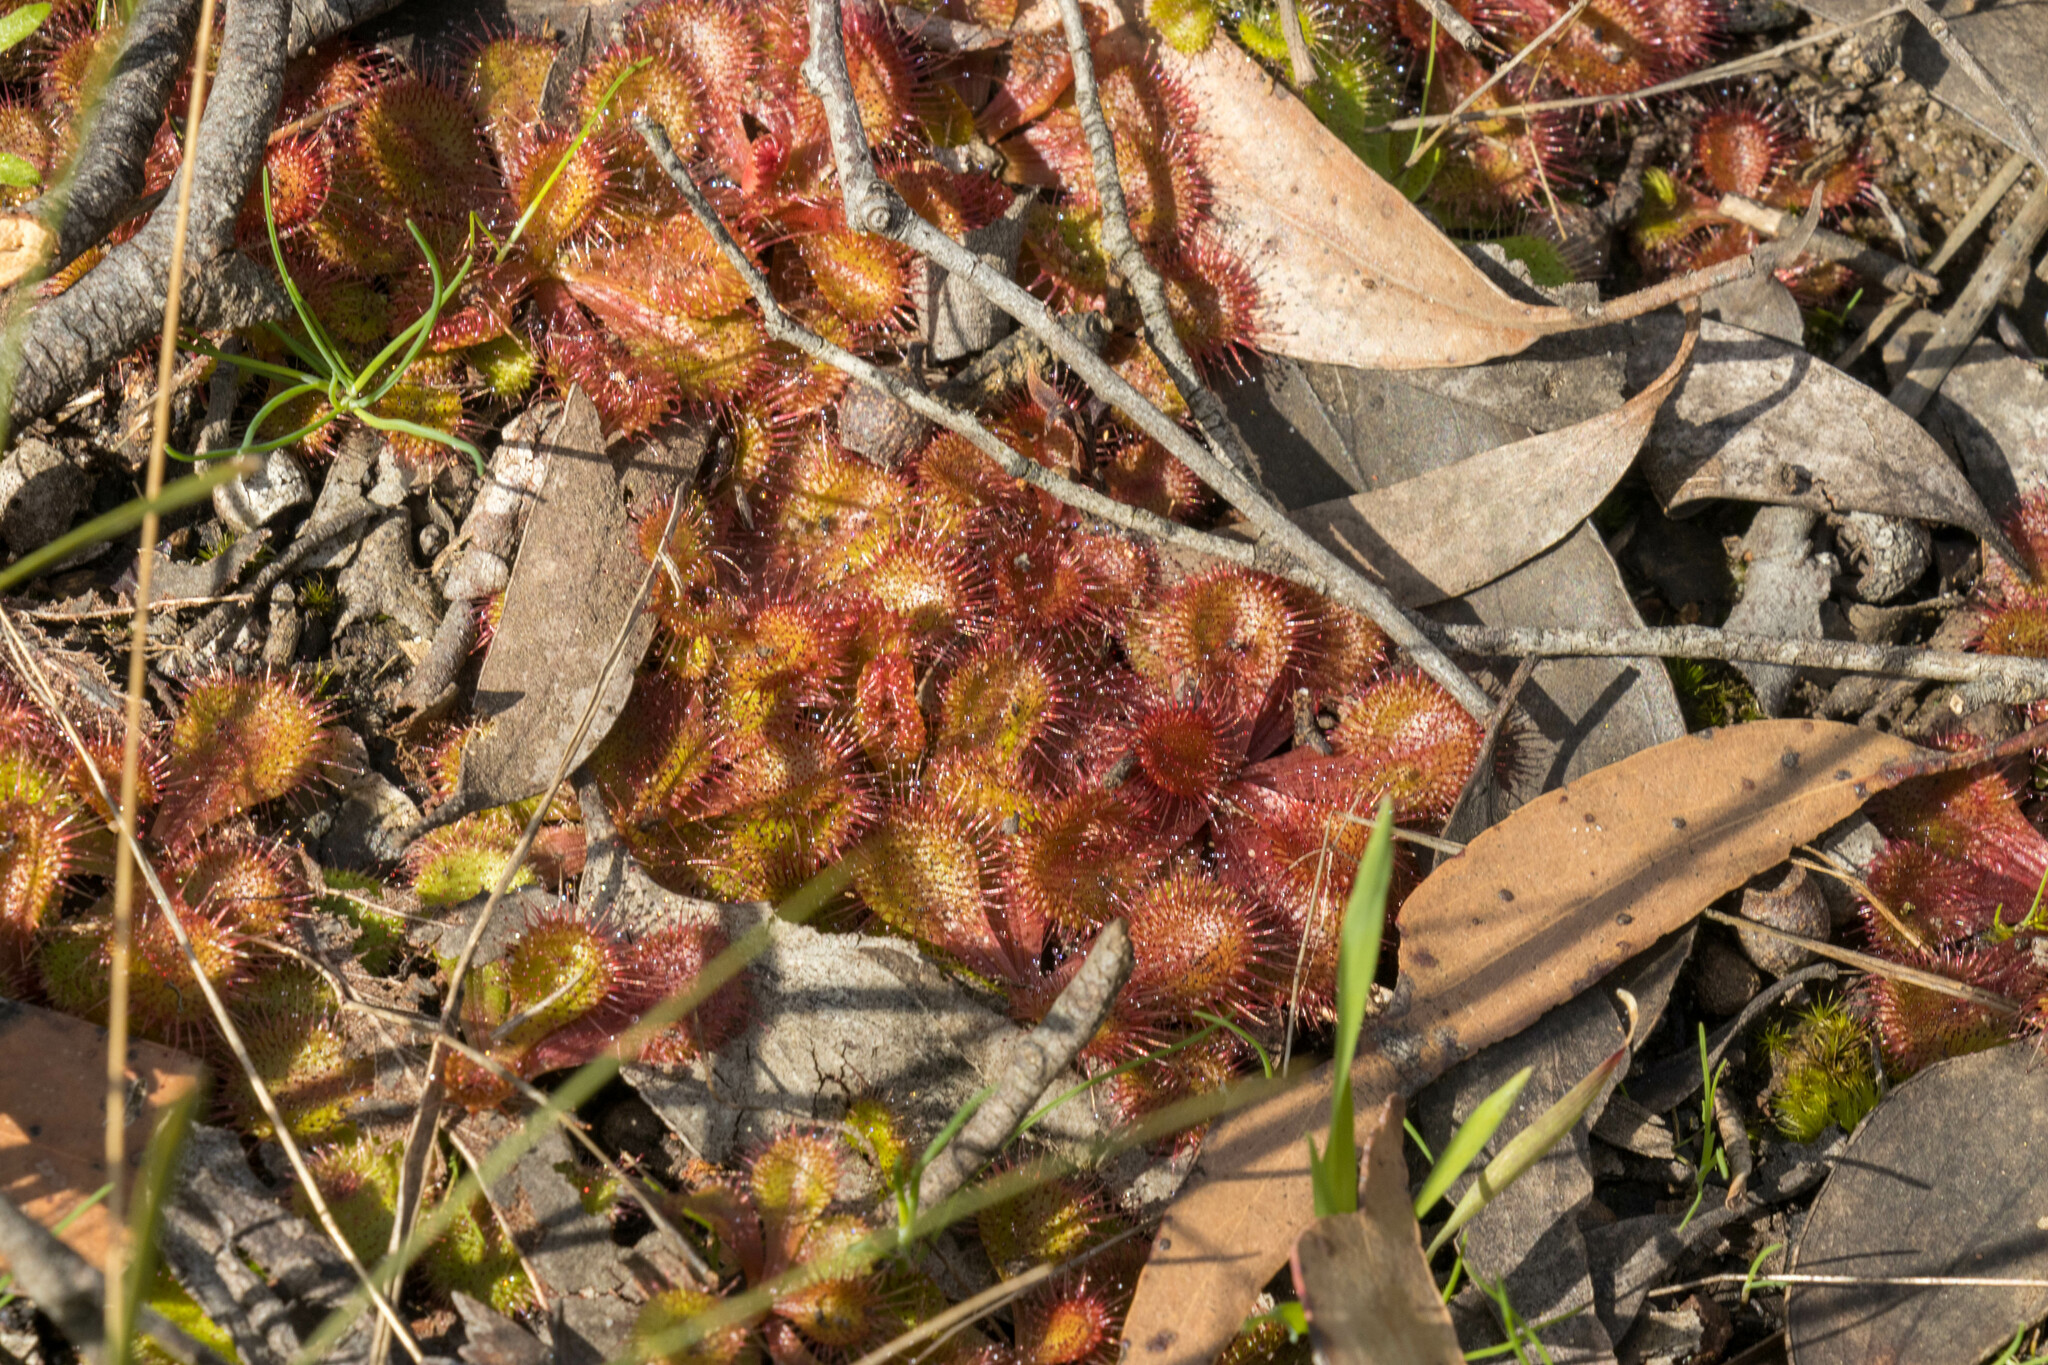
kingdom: Plantae
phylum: Tracheophyta
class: Magnoliopsida
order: Caryophyllales
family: Droseraceae
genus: Drosera
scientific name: Drosera aberrans
